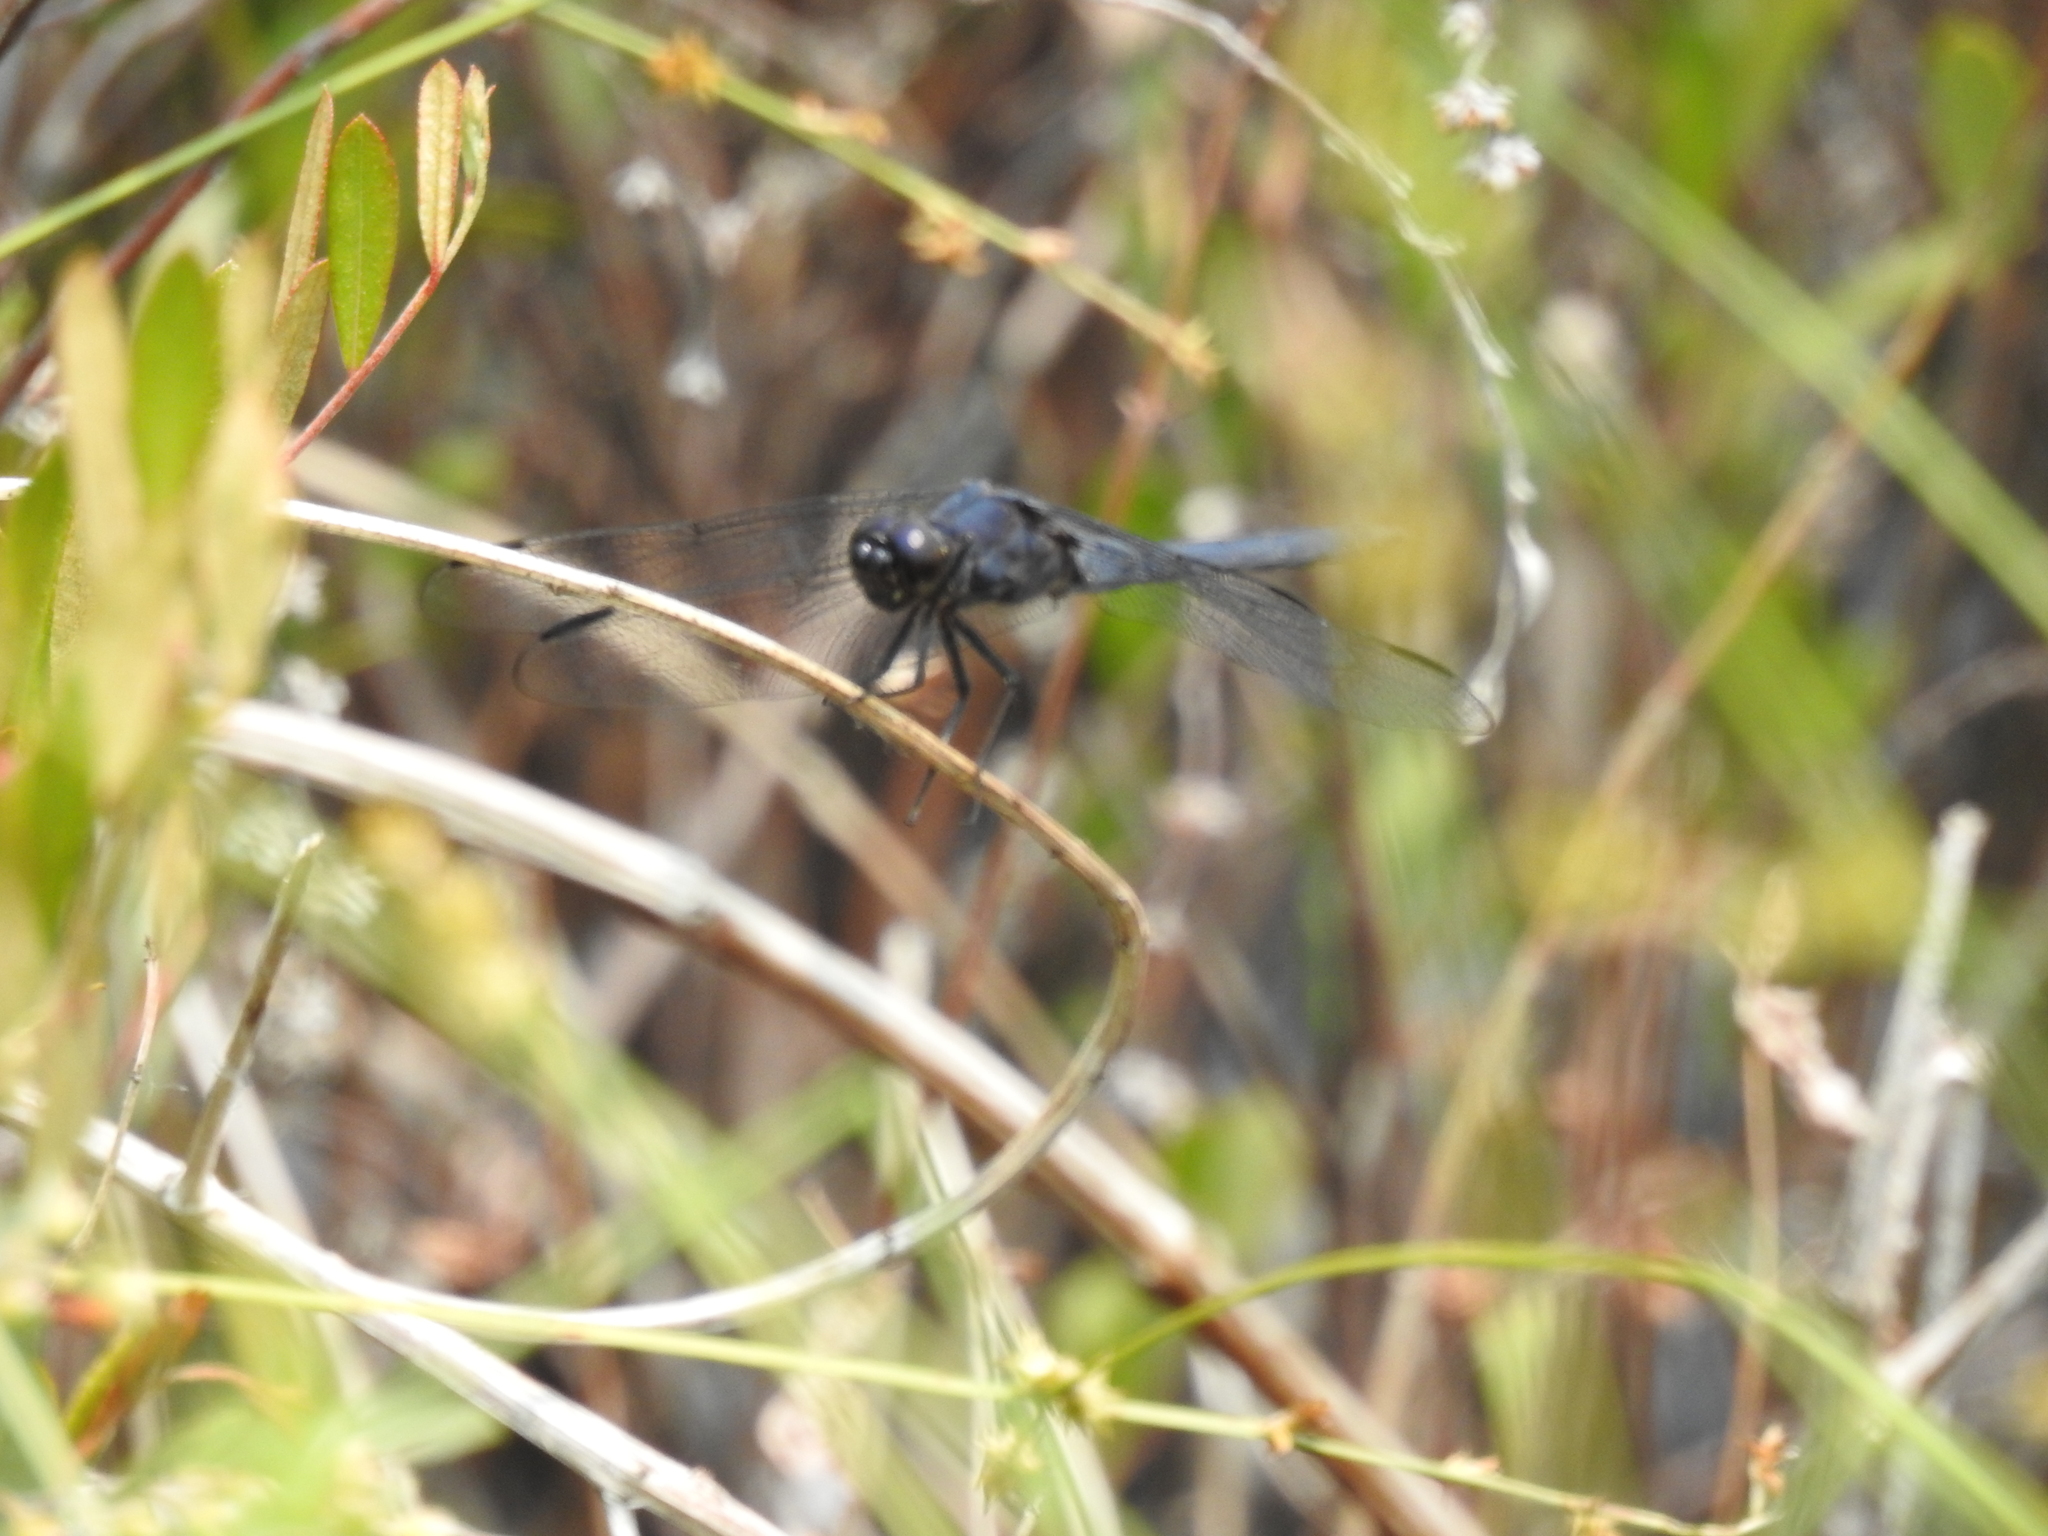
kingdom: Animalia
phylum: Arthropoda
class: Insecta
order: Odonata
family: Libellulidae
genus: Libellula
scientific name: Libellula incesta
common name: Slaty skimmer
